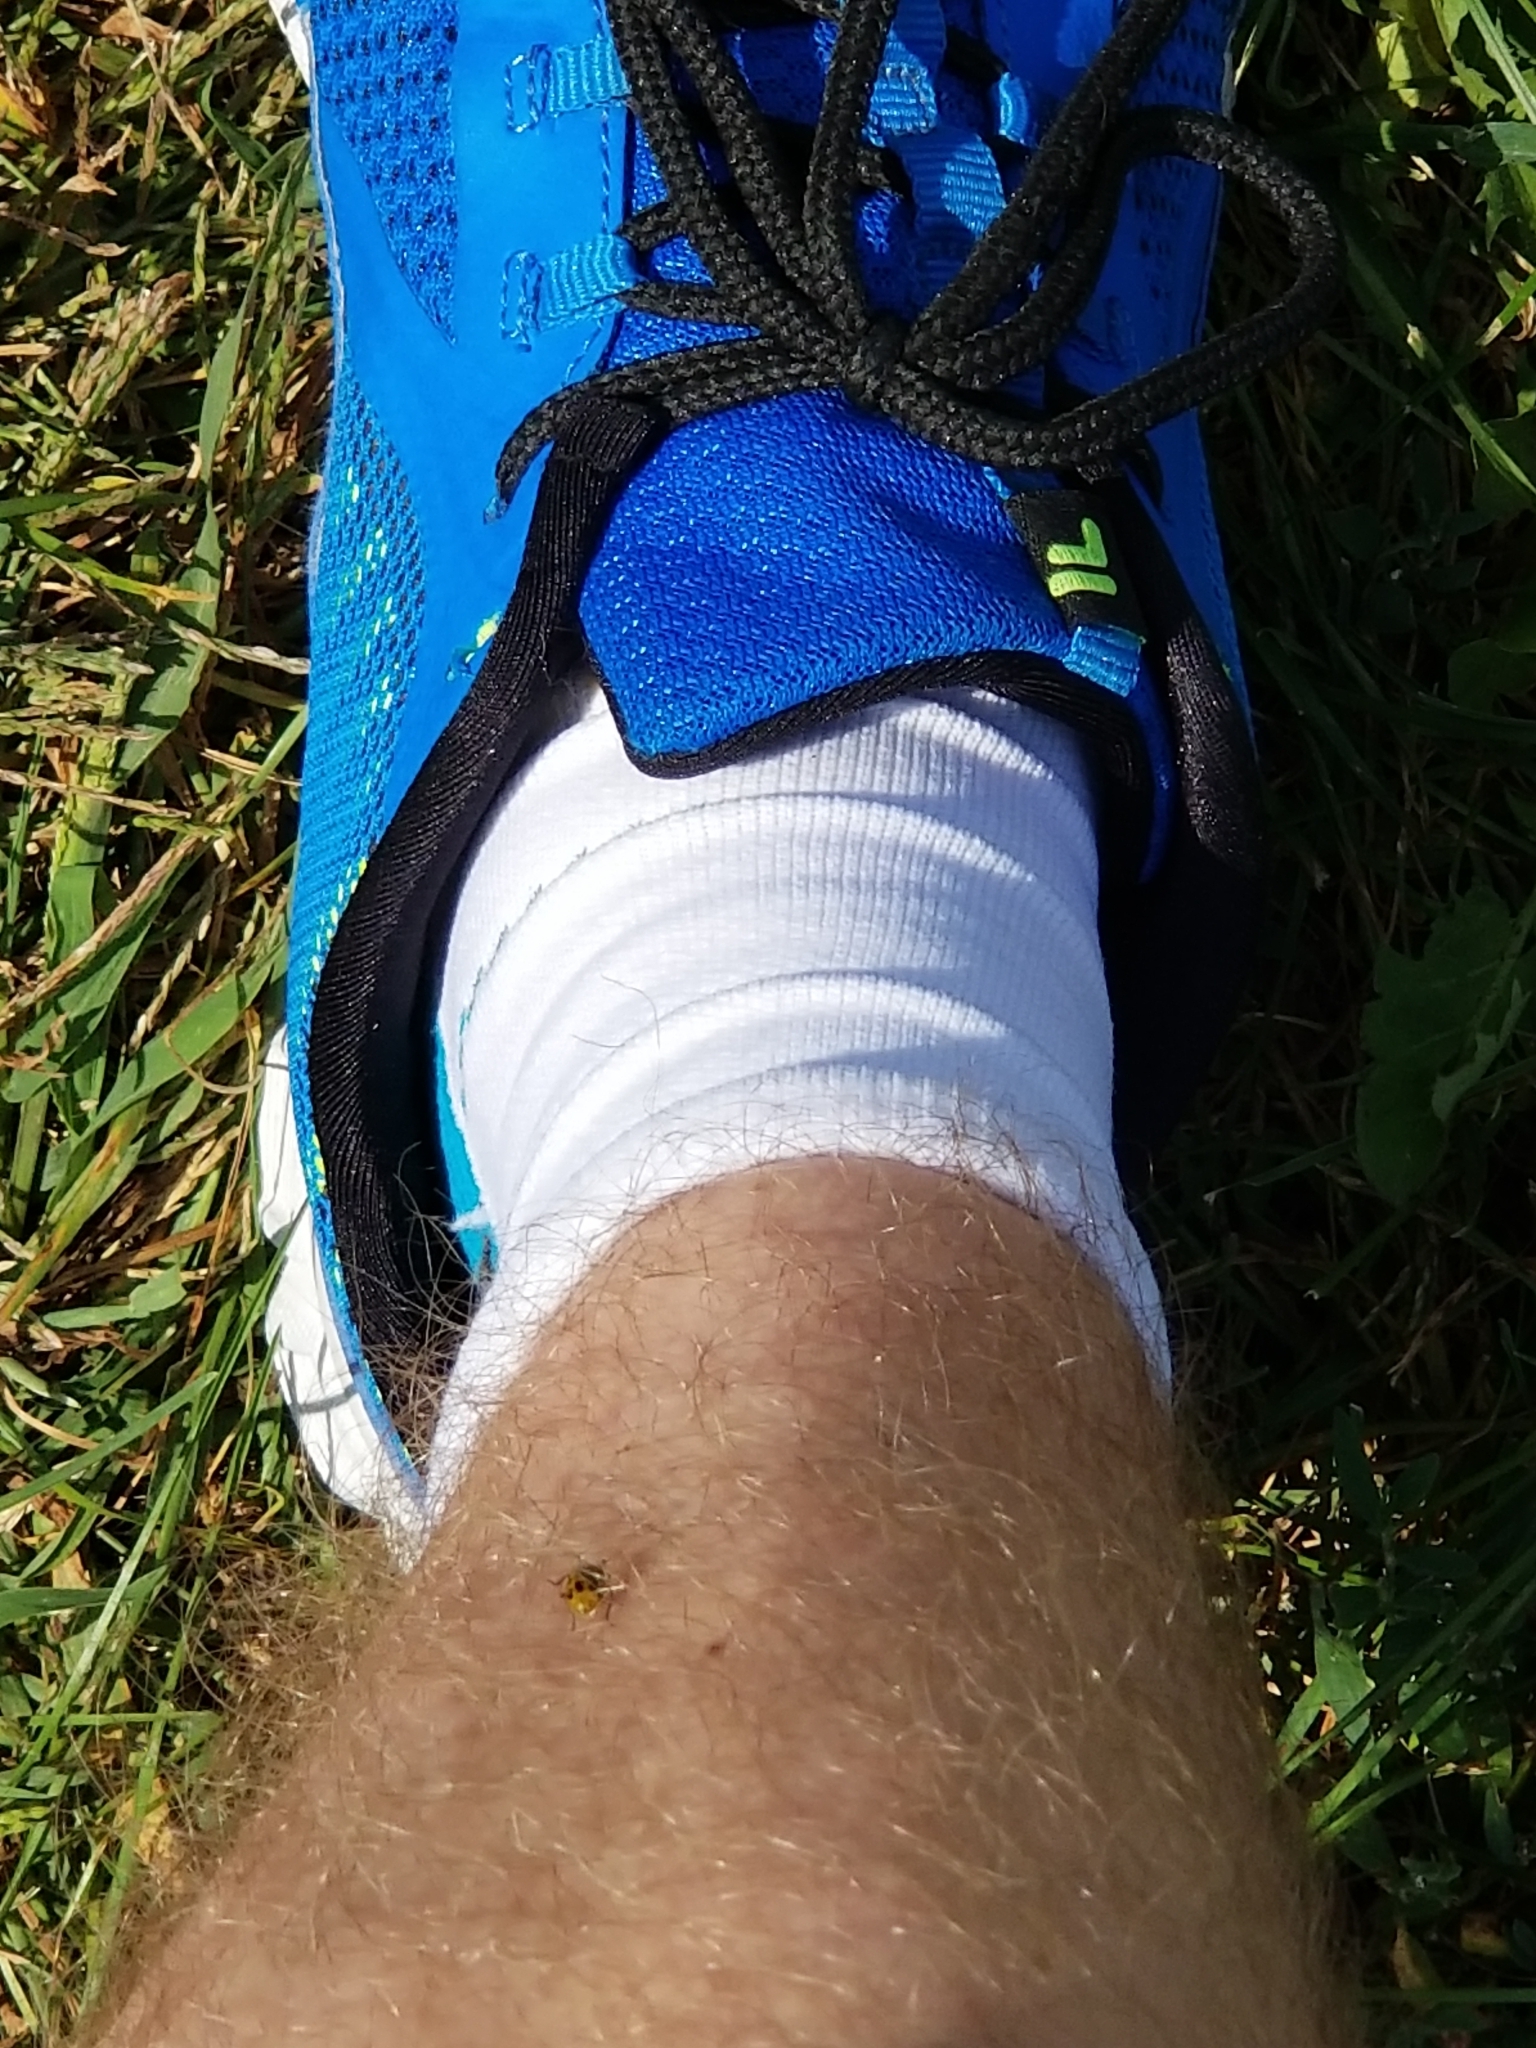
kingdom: Animalia
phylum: Arthropoda
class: Insecta
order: Coleoptera
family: Chrysomelidae
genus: Diabrotica
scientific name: Diabrotica undecimpunctata
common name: Spotted cucumber beetle
